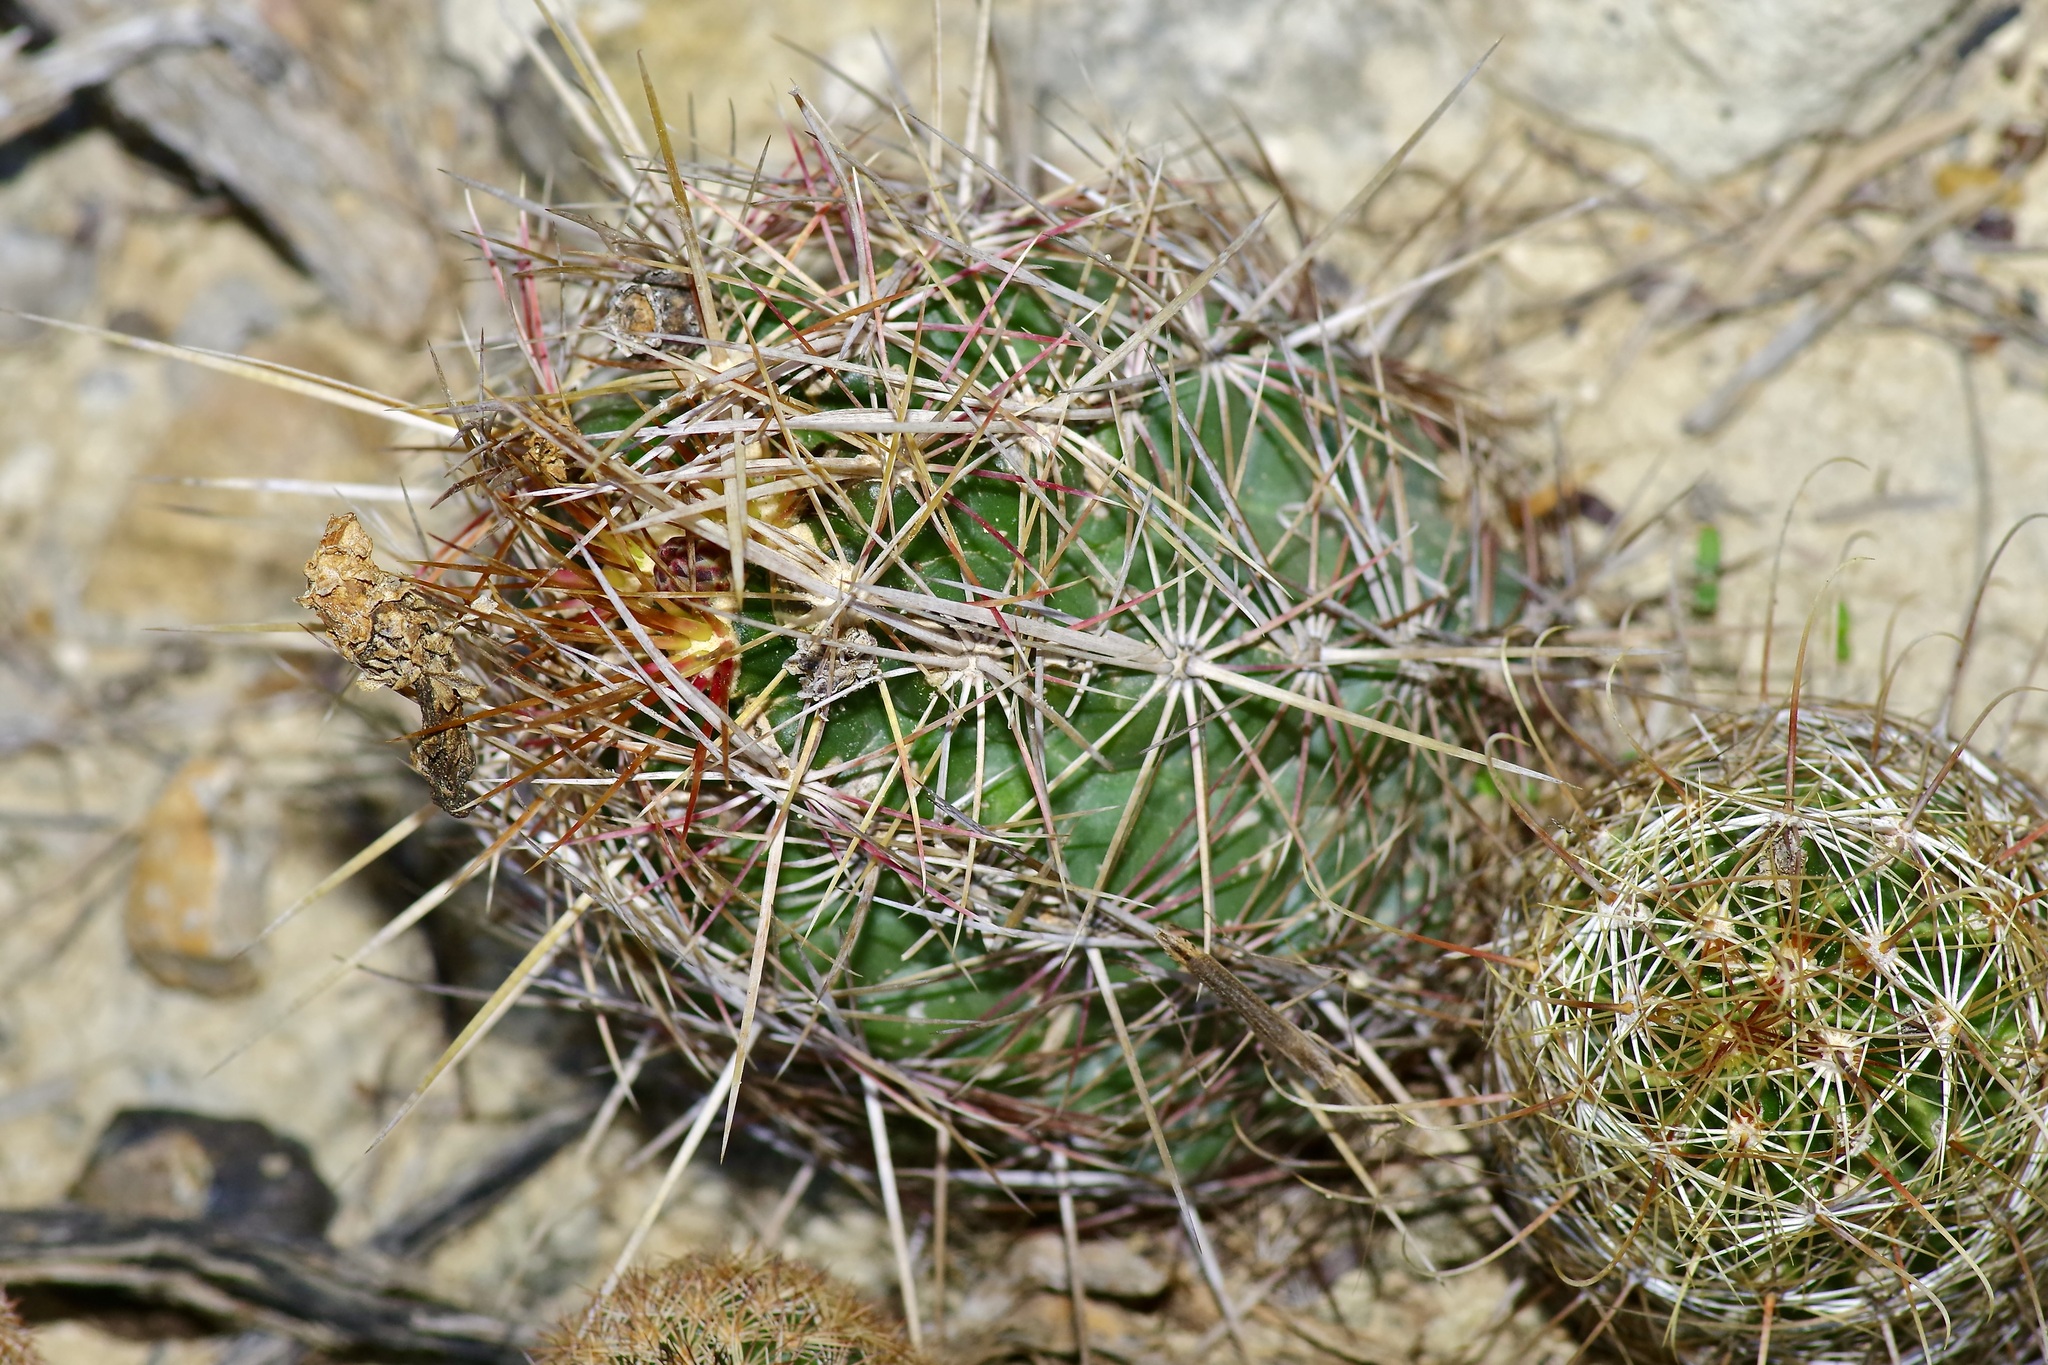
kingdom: Plantae
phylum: Tracheophyta
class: Magnoliopsida
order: Caryophyllales
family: Cactaceae
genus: Thelocactus
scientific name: Thelocactus bicolor
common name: Glory of texas
